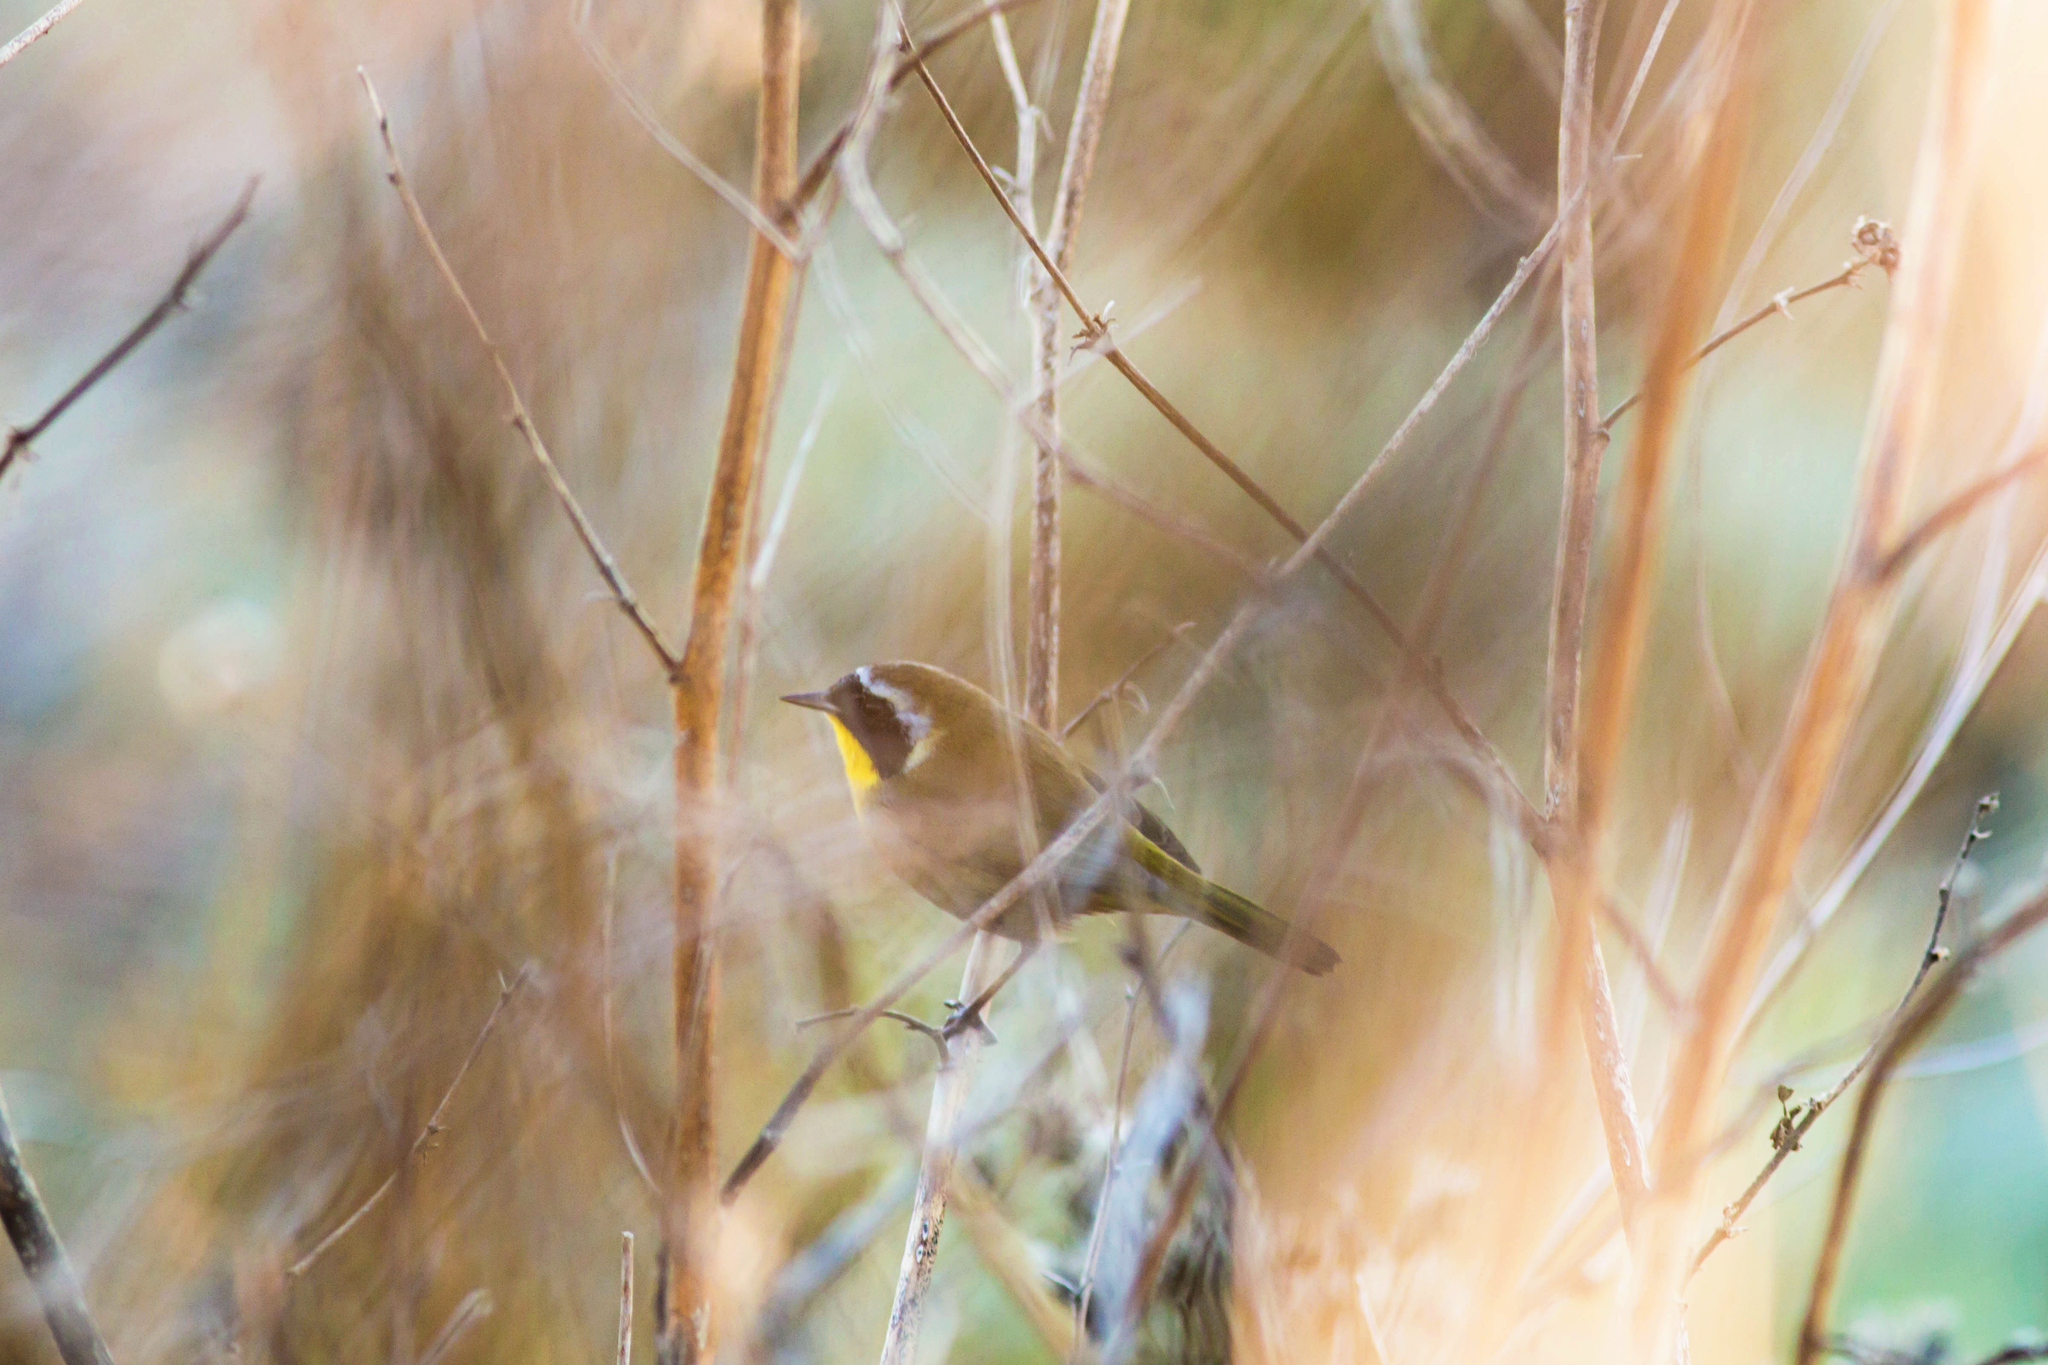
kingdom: Animalia
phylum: Chordata
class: Aves
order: Passeriformes
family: Parulidae
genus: Geothlypis
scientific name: Geothlypis trichas
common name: Common yellowthroat
